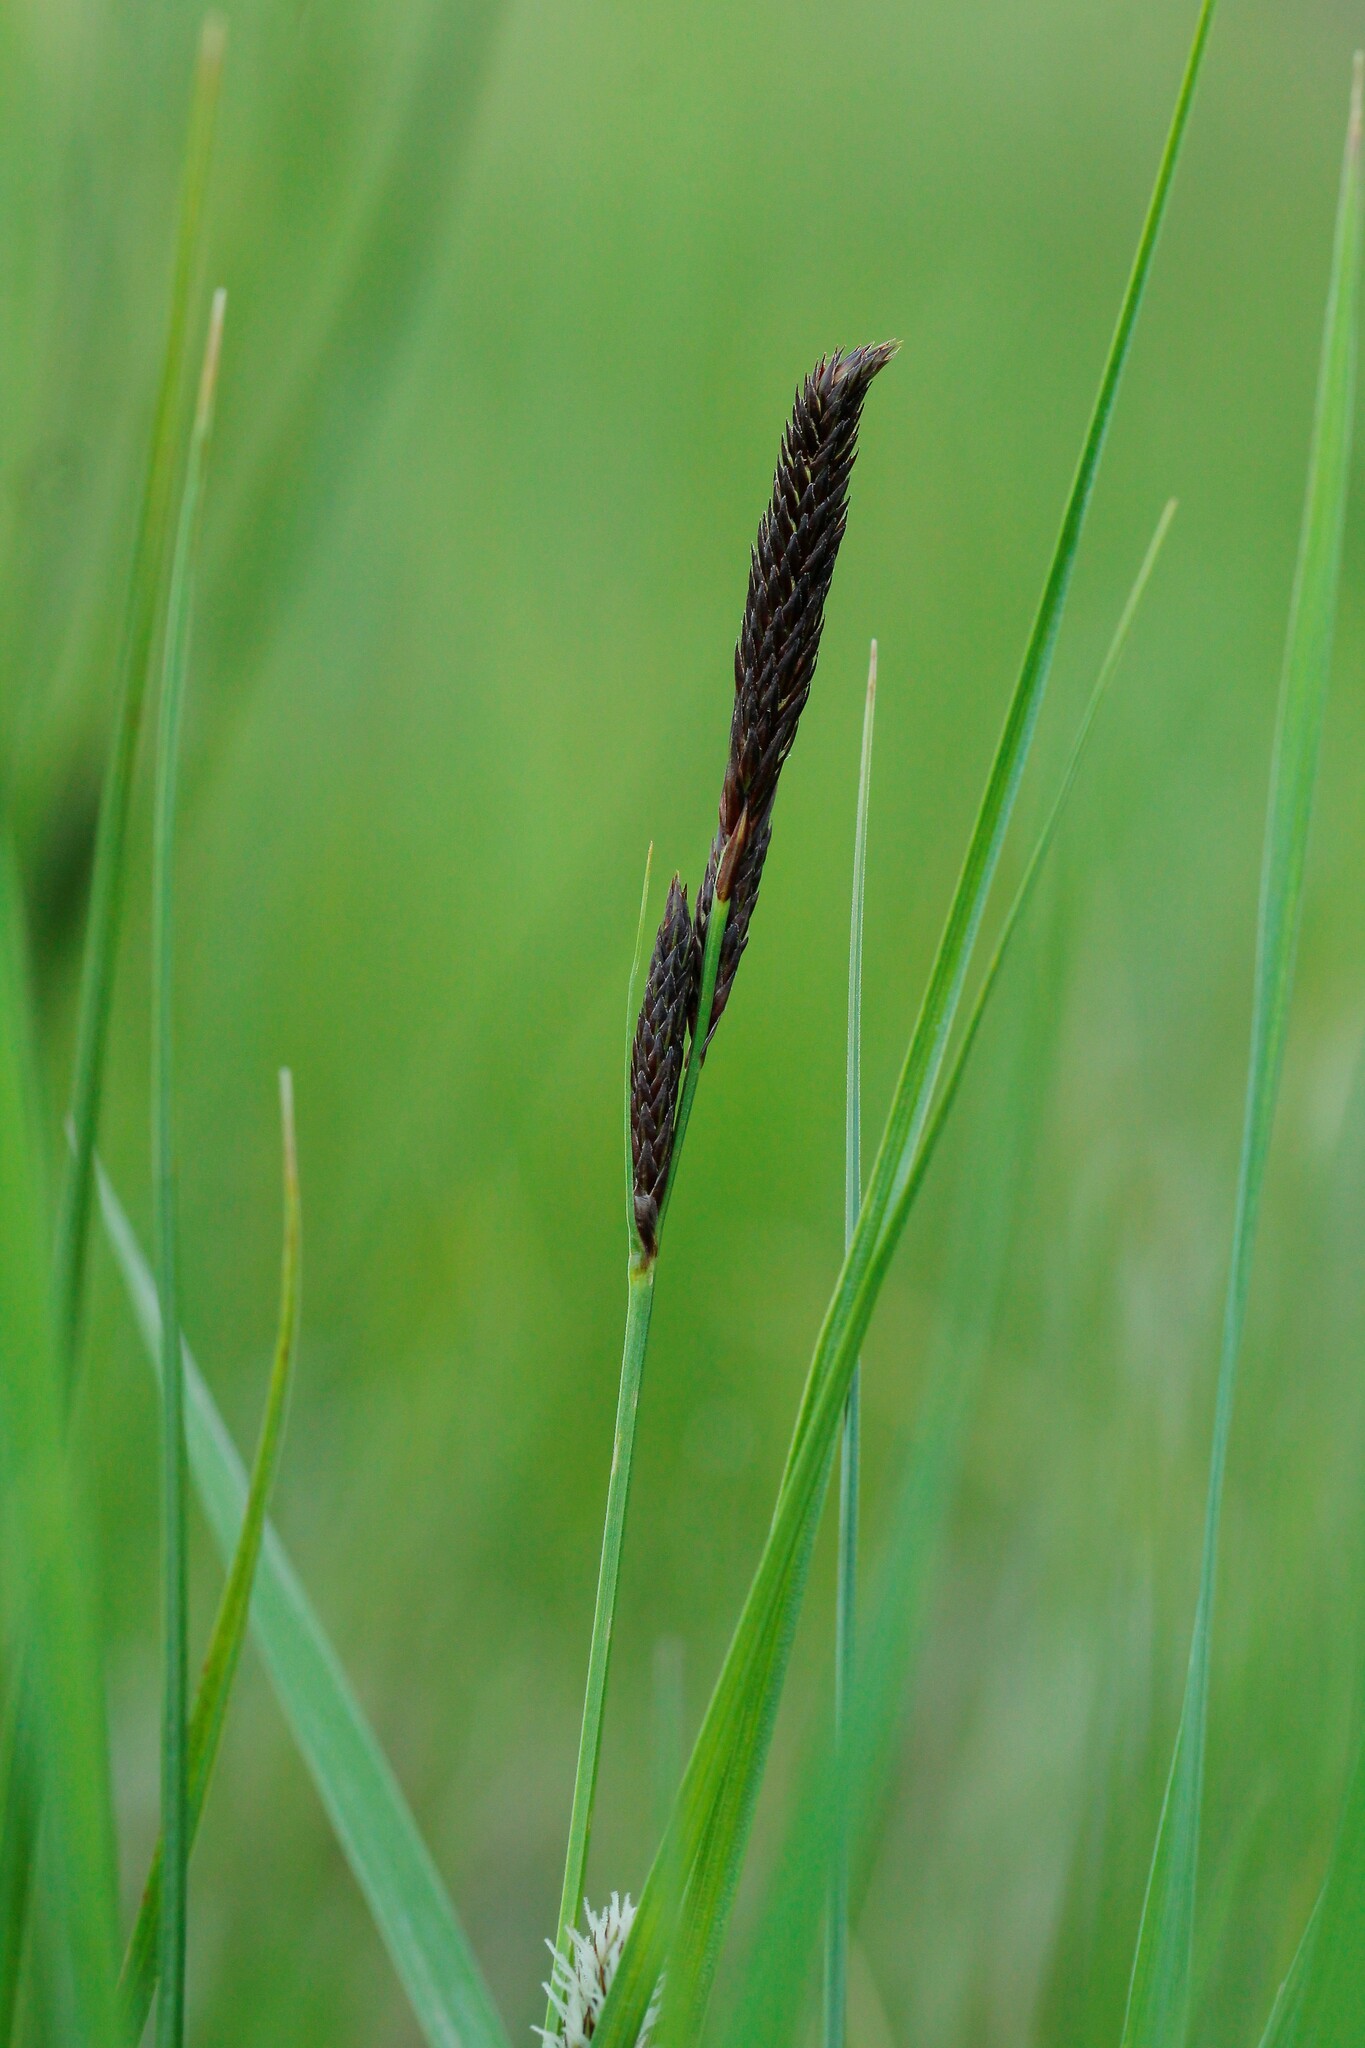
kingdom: Plantae
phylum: Tracheophyta
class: Liliopsida
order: Poales
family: Cyperaceae
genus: Carex
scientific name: Carex melanostachya
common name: Black-spiked sedge
